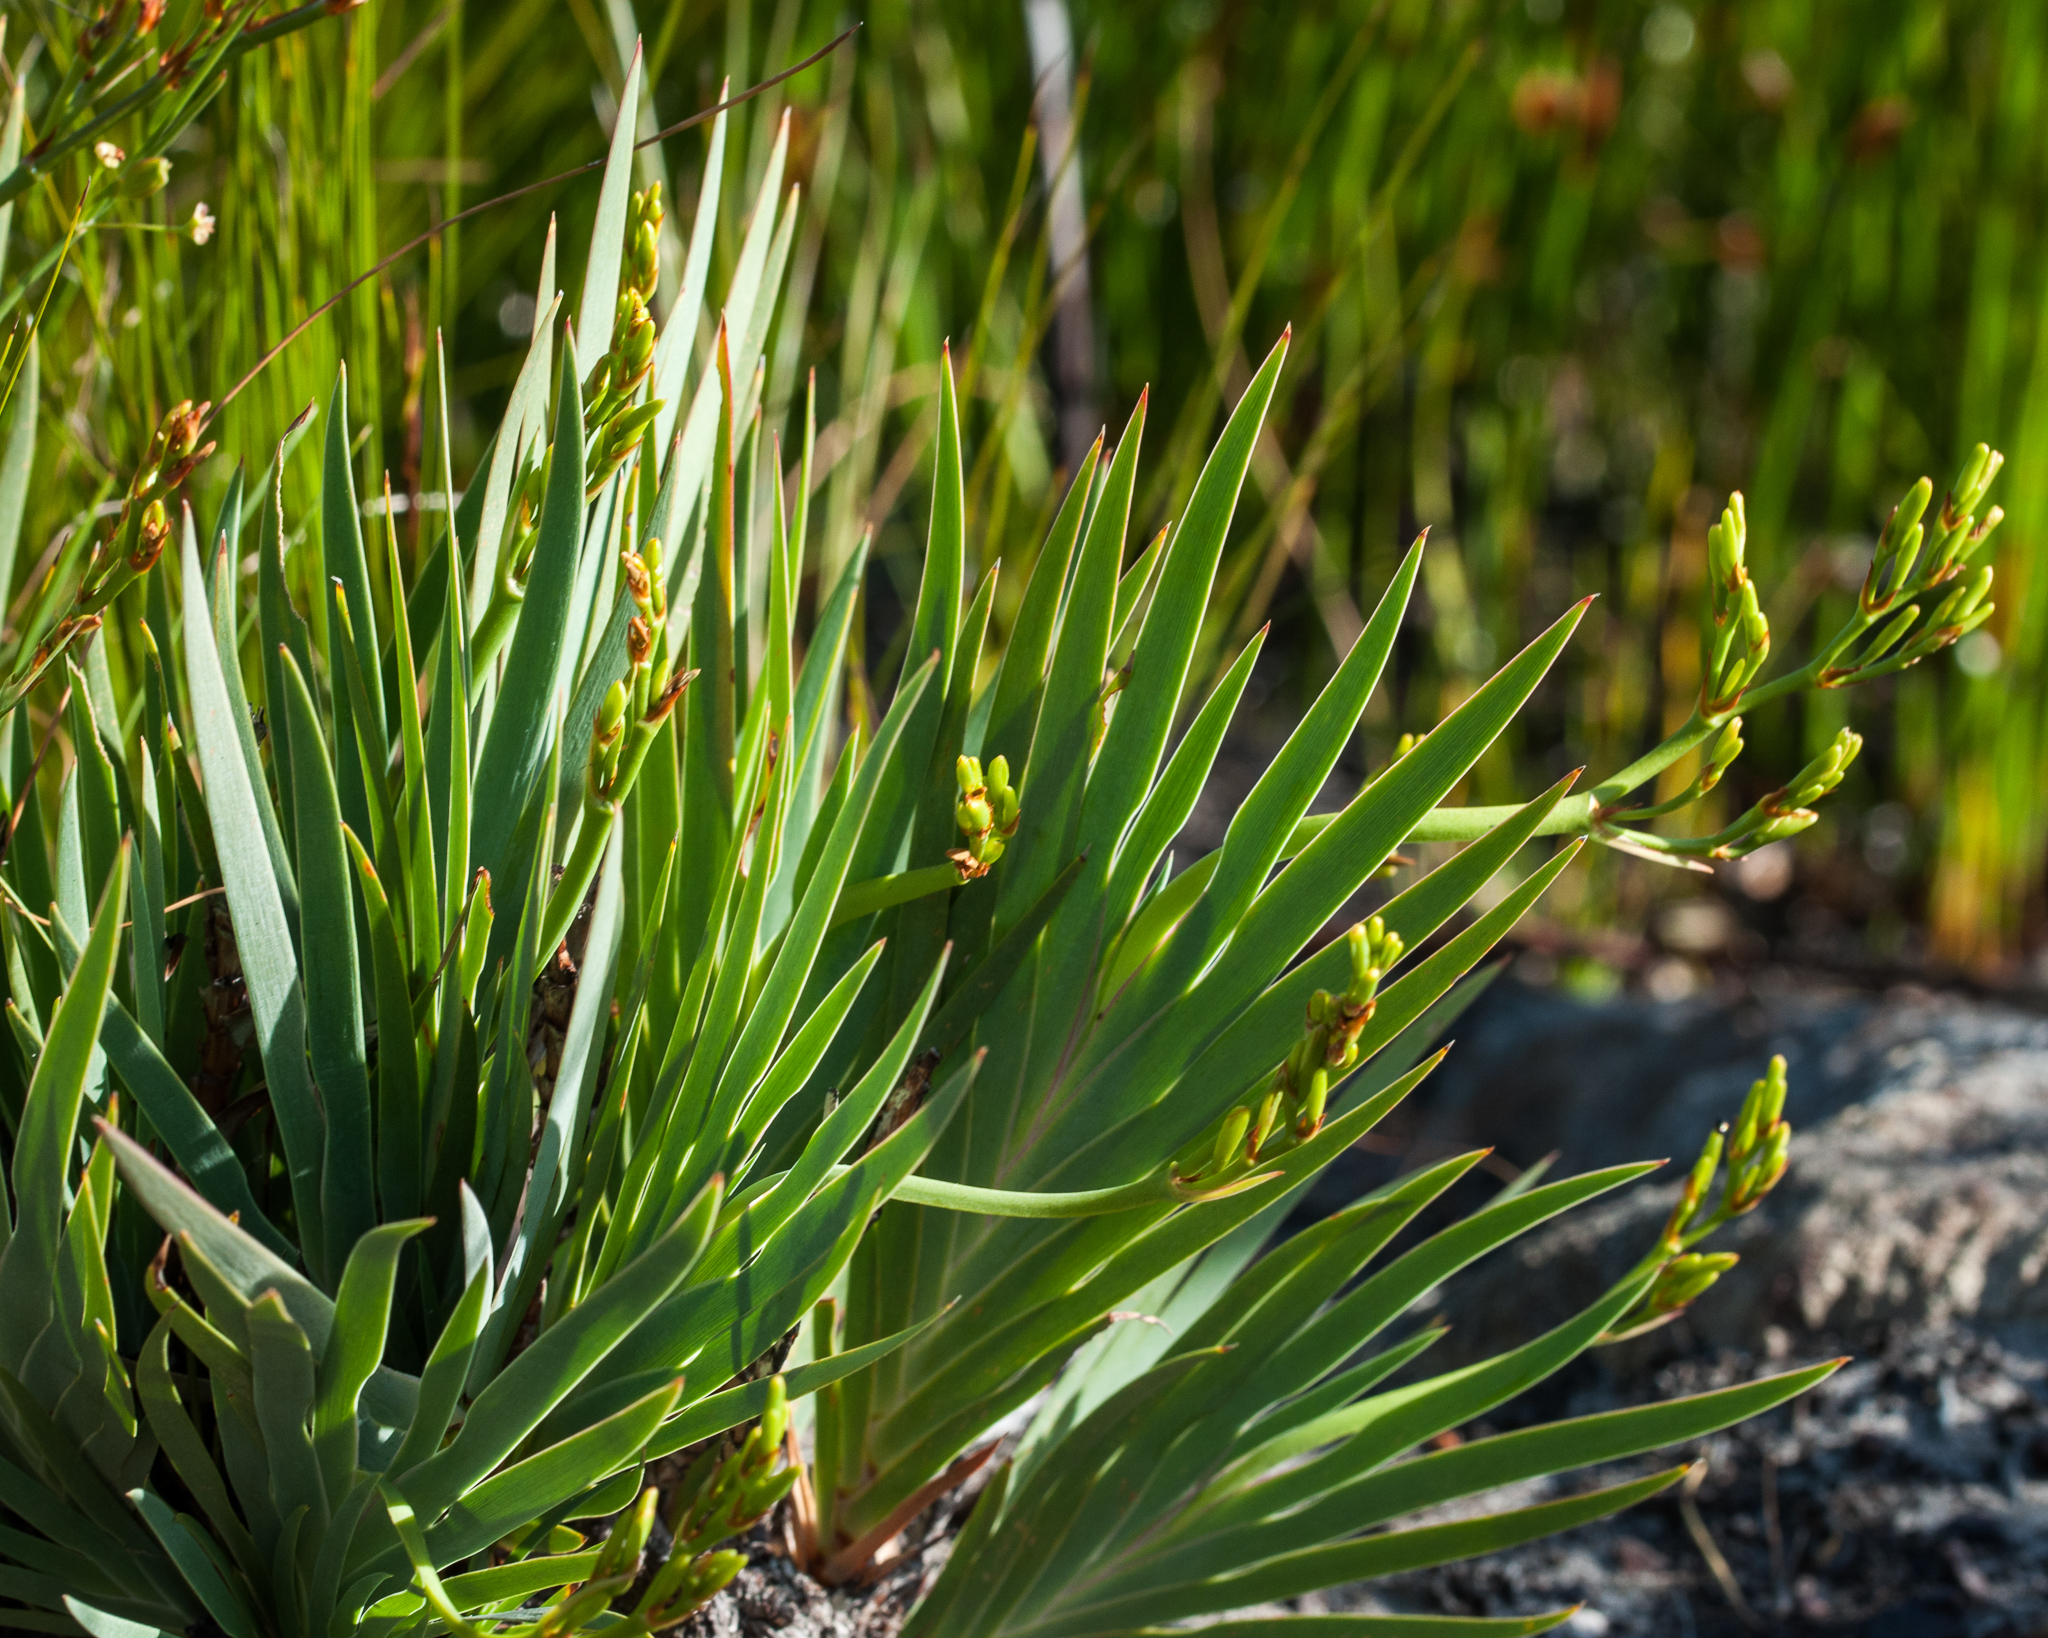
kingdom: Plantae
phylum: Tracheophyta
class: Liliopsida
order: Asparagales
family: Iridaceae
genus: Nivenia
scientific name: Nivenia stokoei
